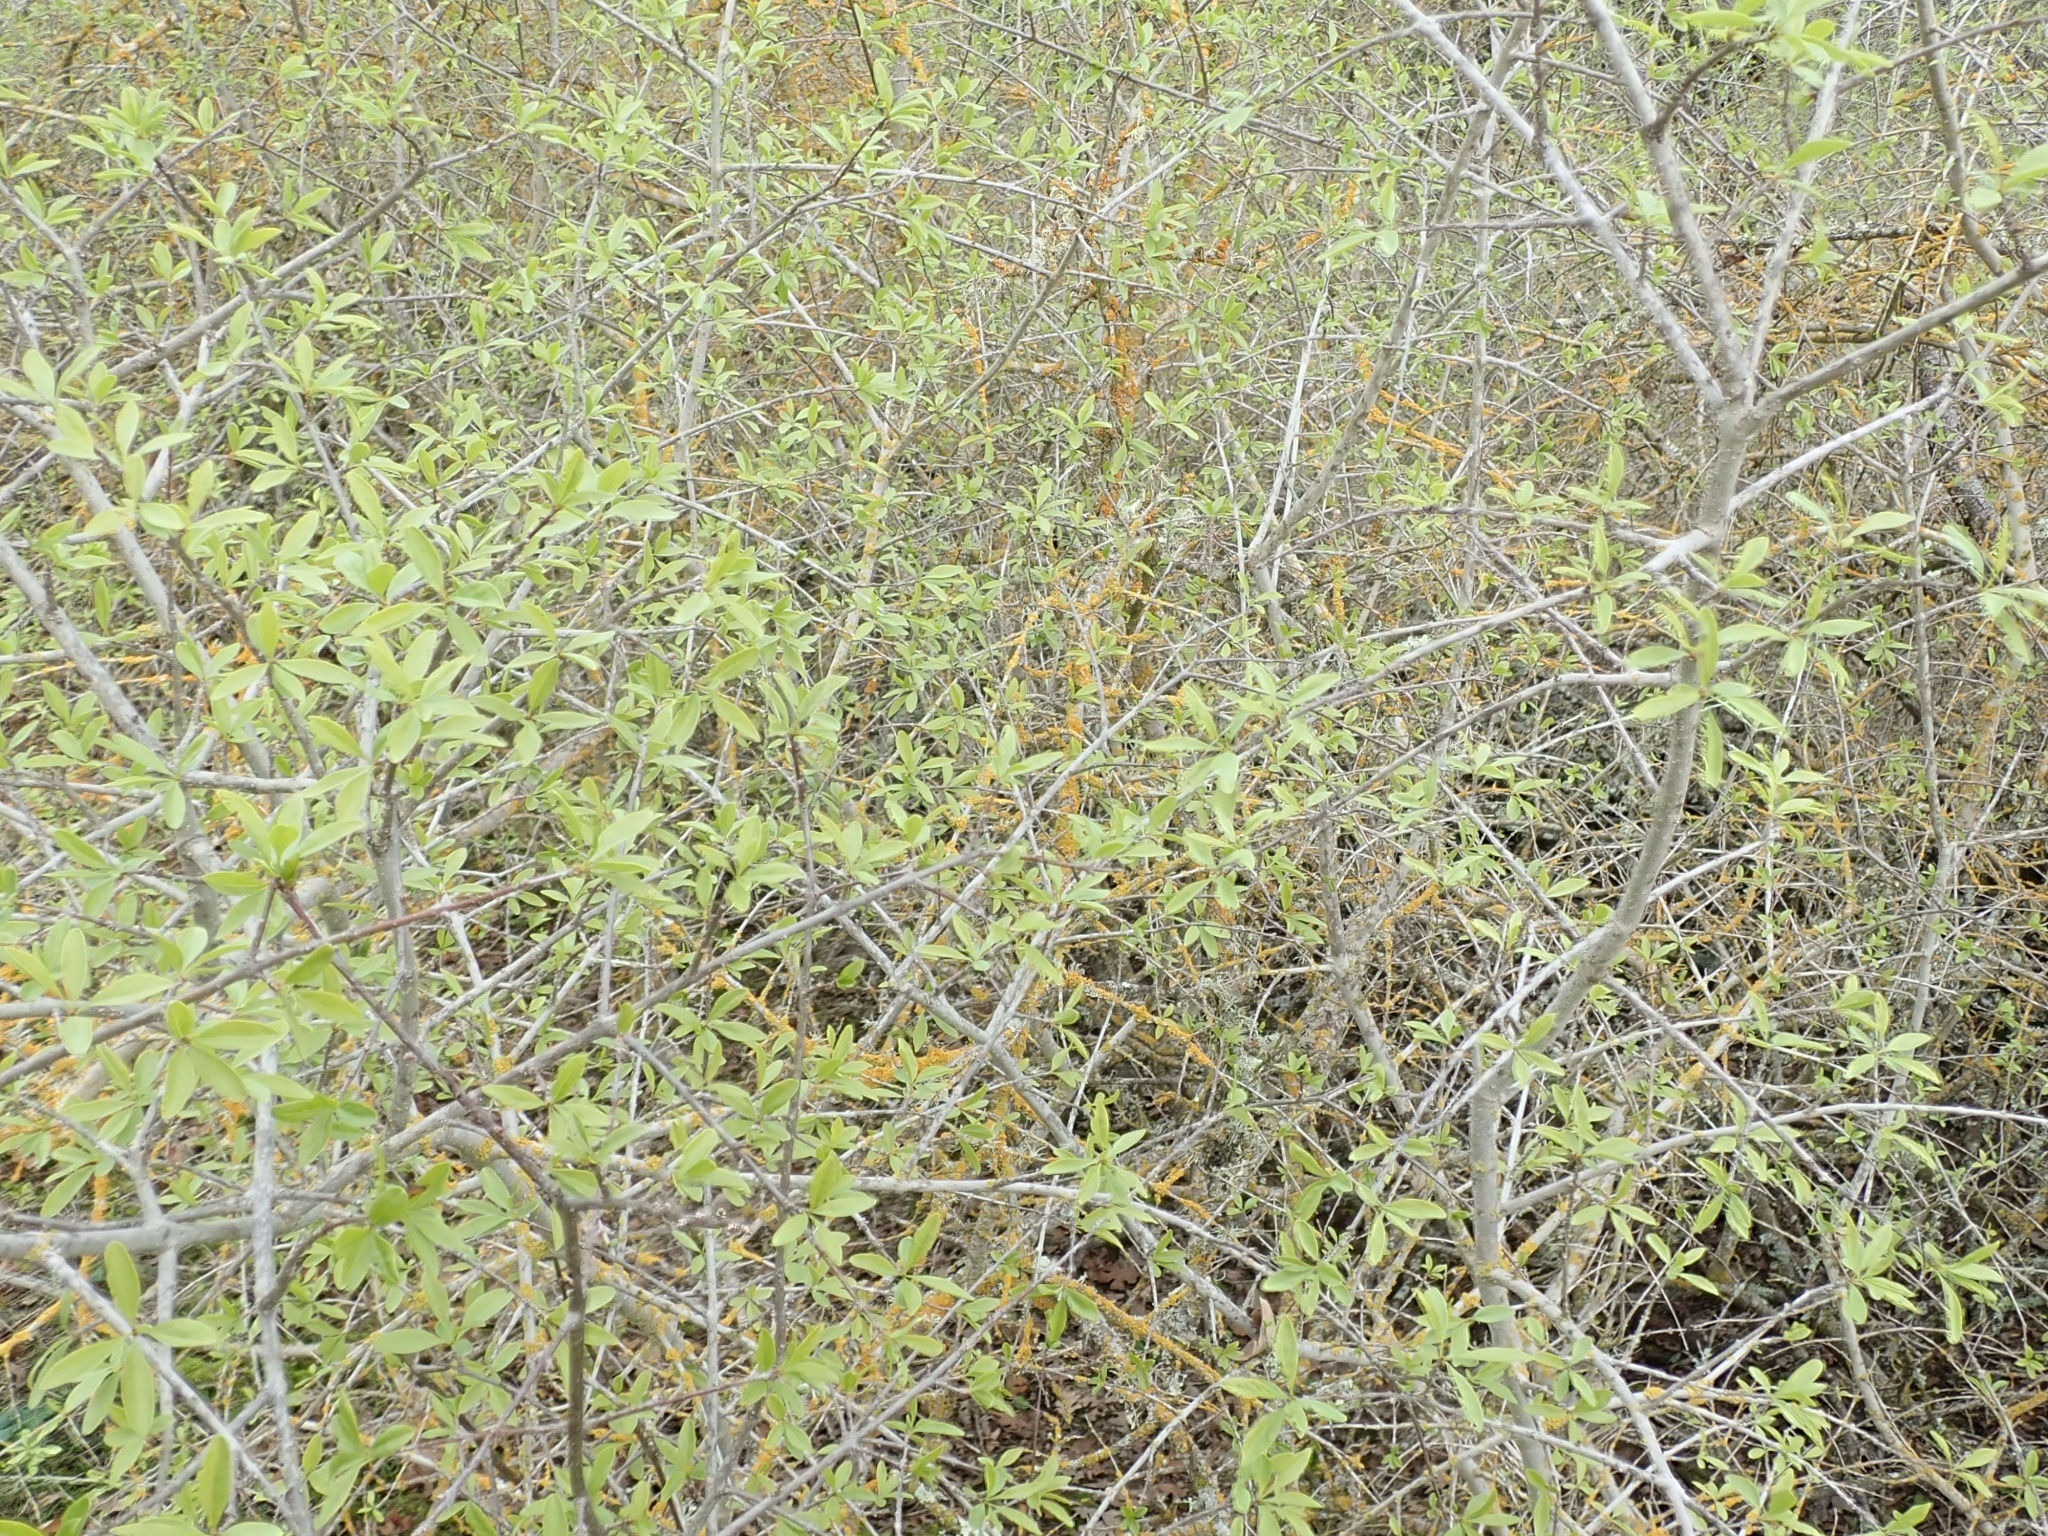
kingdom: Plantae
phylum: Tracheophyta
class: Magnoliopsida
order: Lamiales
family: Oleaceae
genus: Forestiera
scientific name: Forestiera pubescens
